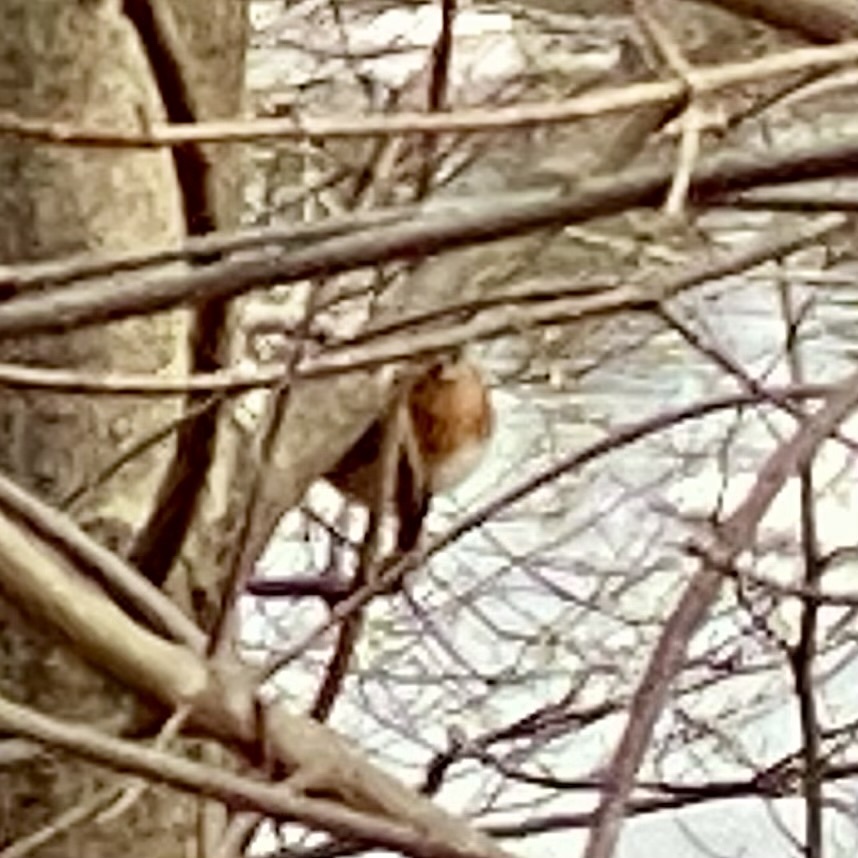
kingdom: Animalia
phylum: Chordata
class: Aves
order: Passeriformes
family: Turdidae
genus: Sialia
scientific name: Sialia sialis
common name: Eastern bluebird
